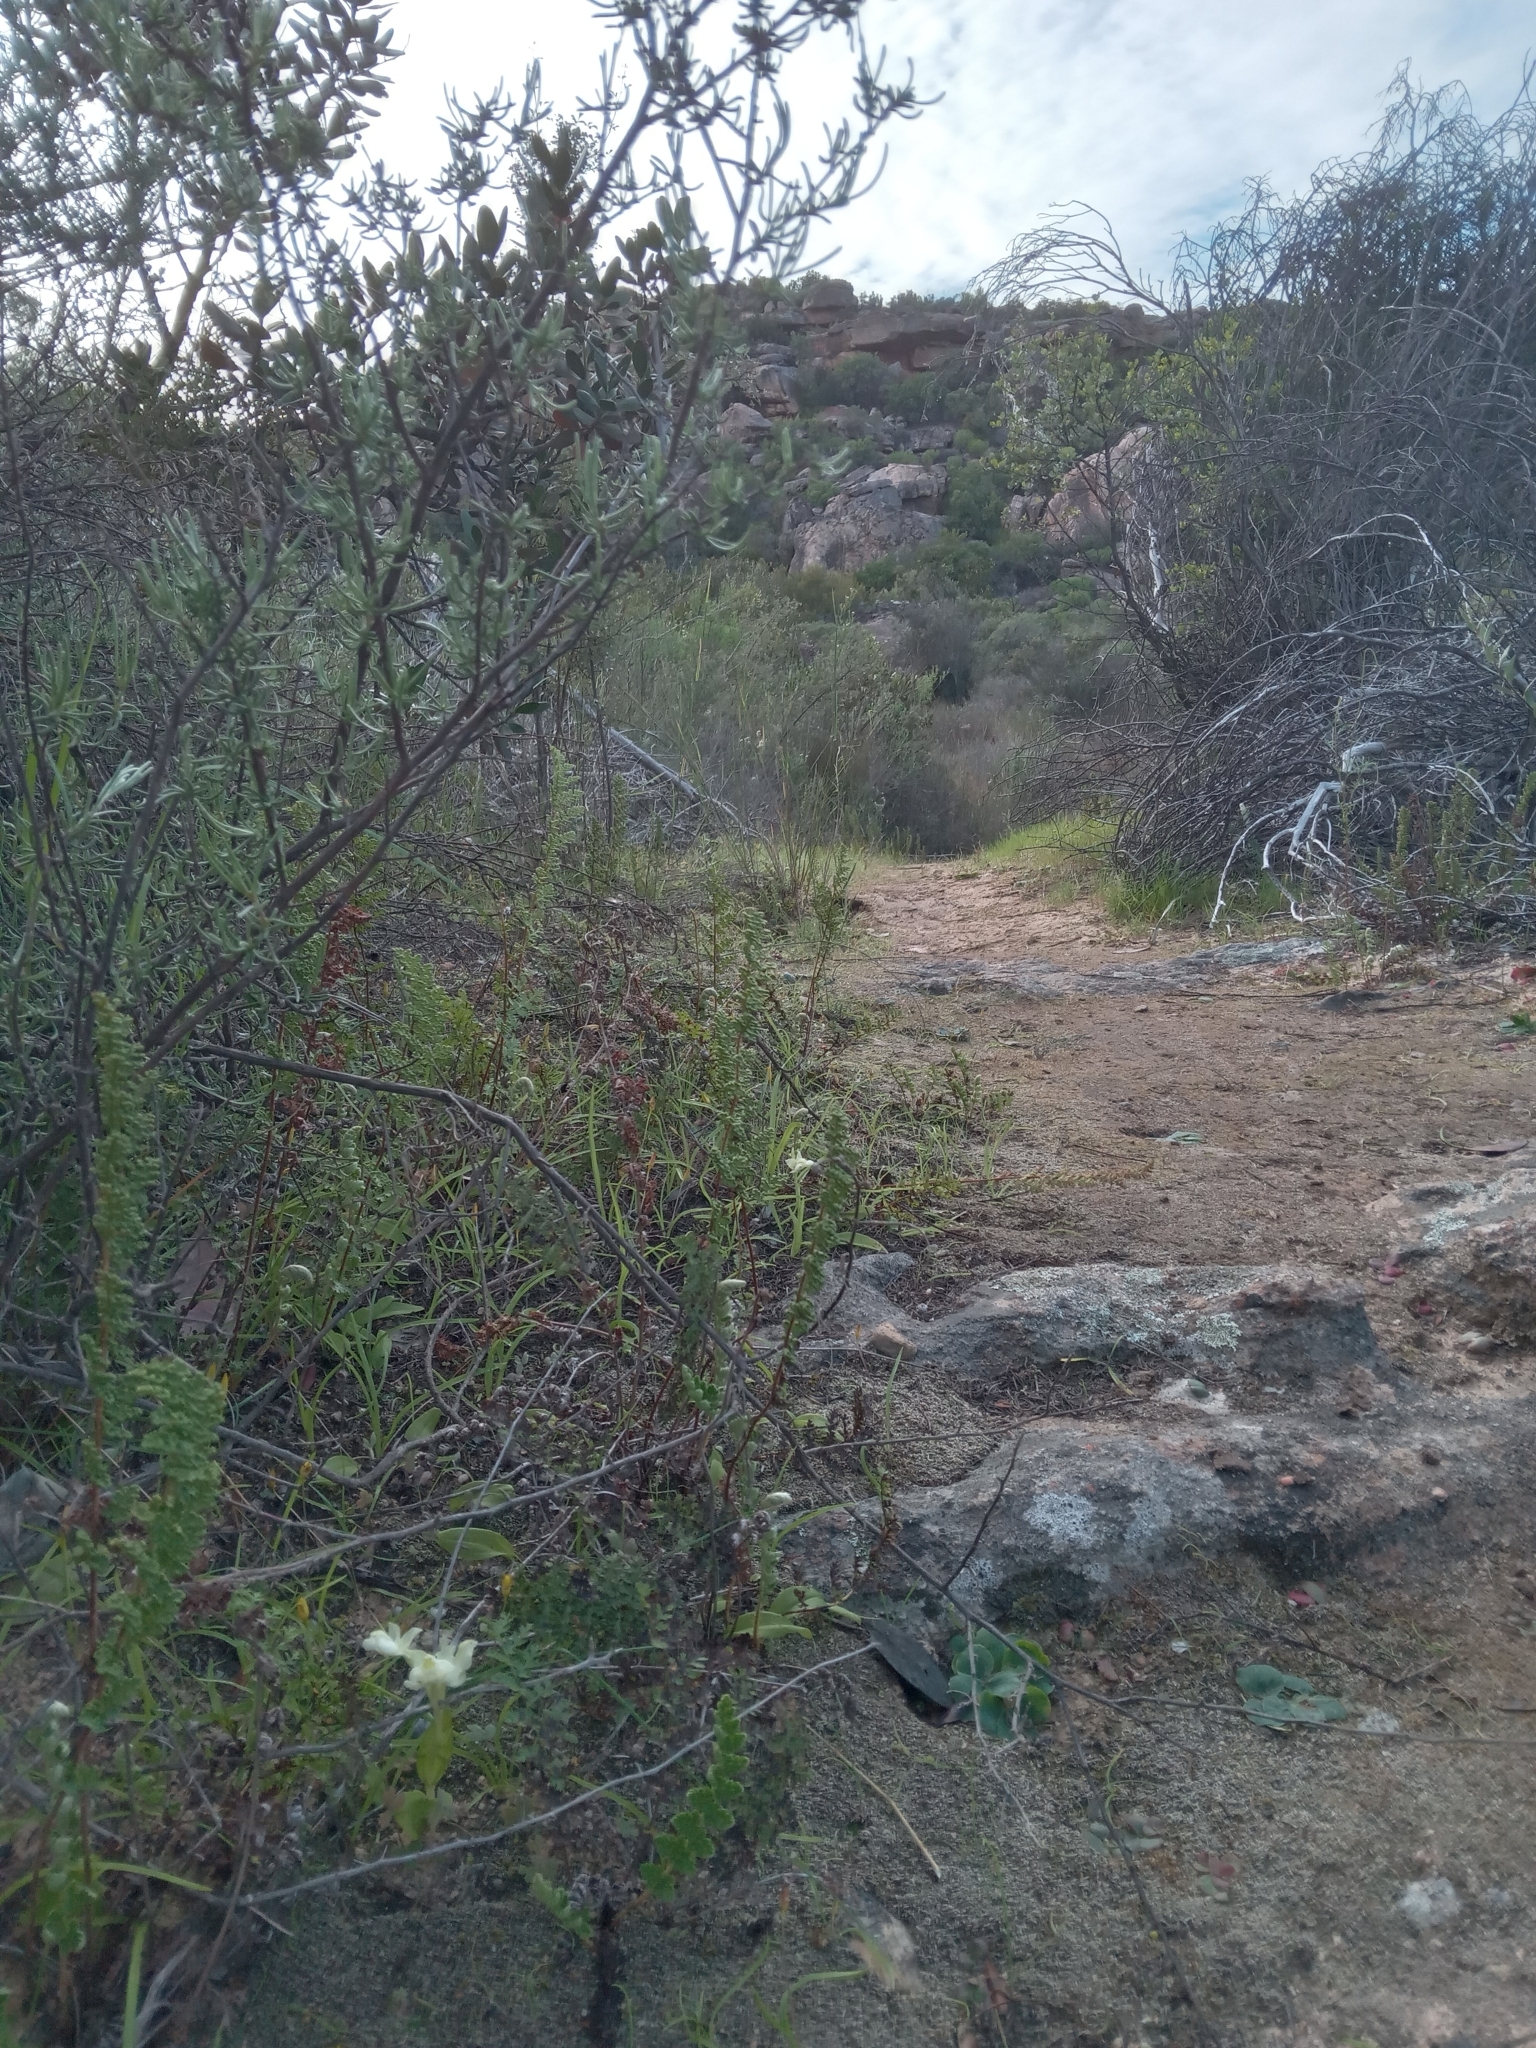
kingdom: Plantae
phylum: Tracheophyta
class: Liliopsida
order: Asparagales
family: Orchidaceae
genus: Pterygodium
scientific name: Pterygodium pentherianum
